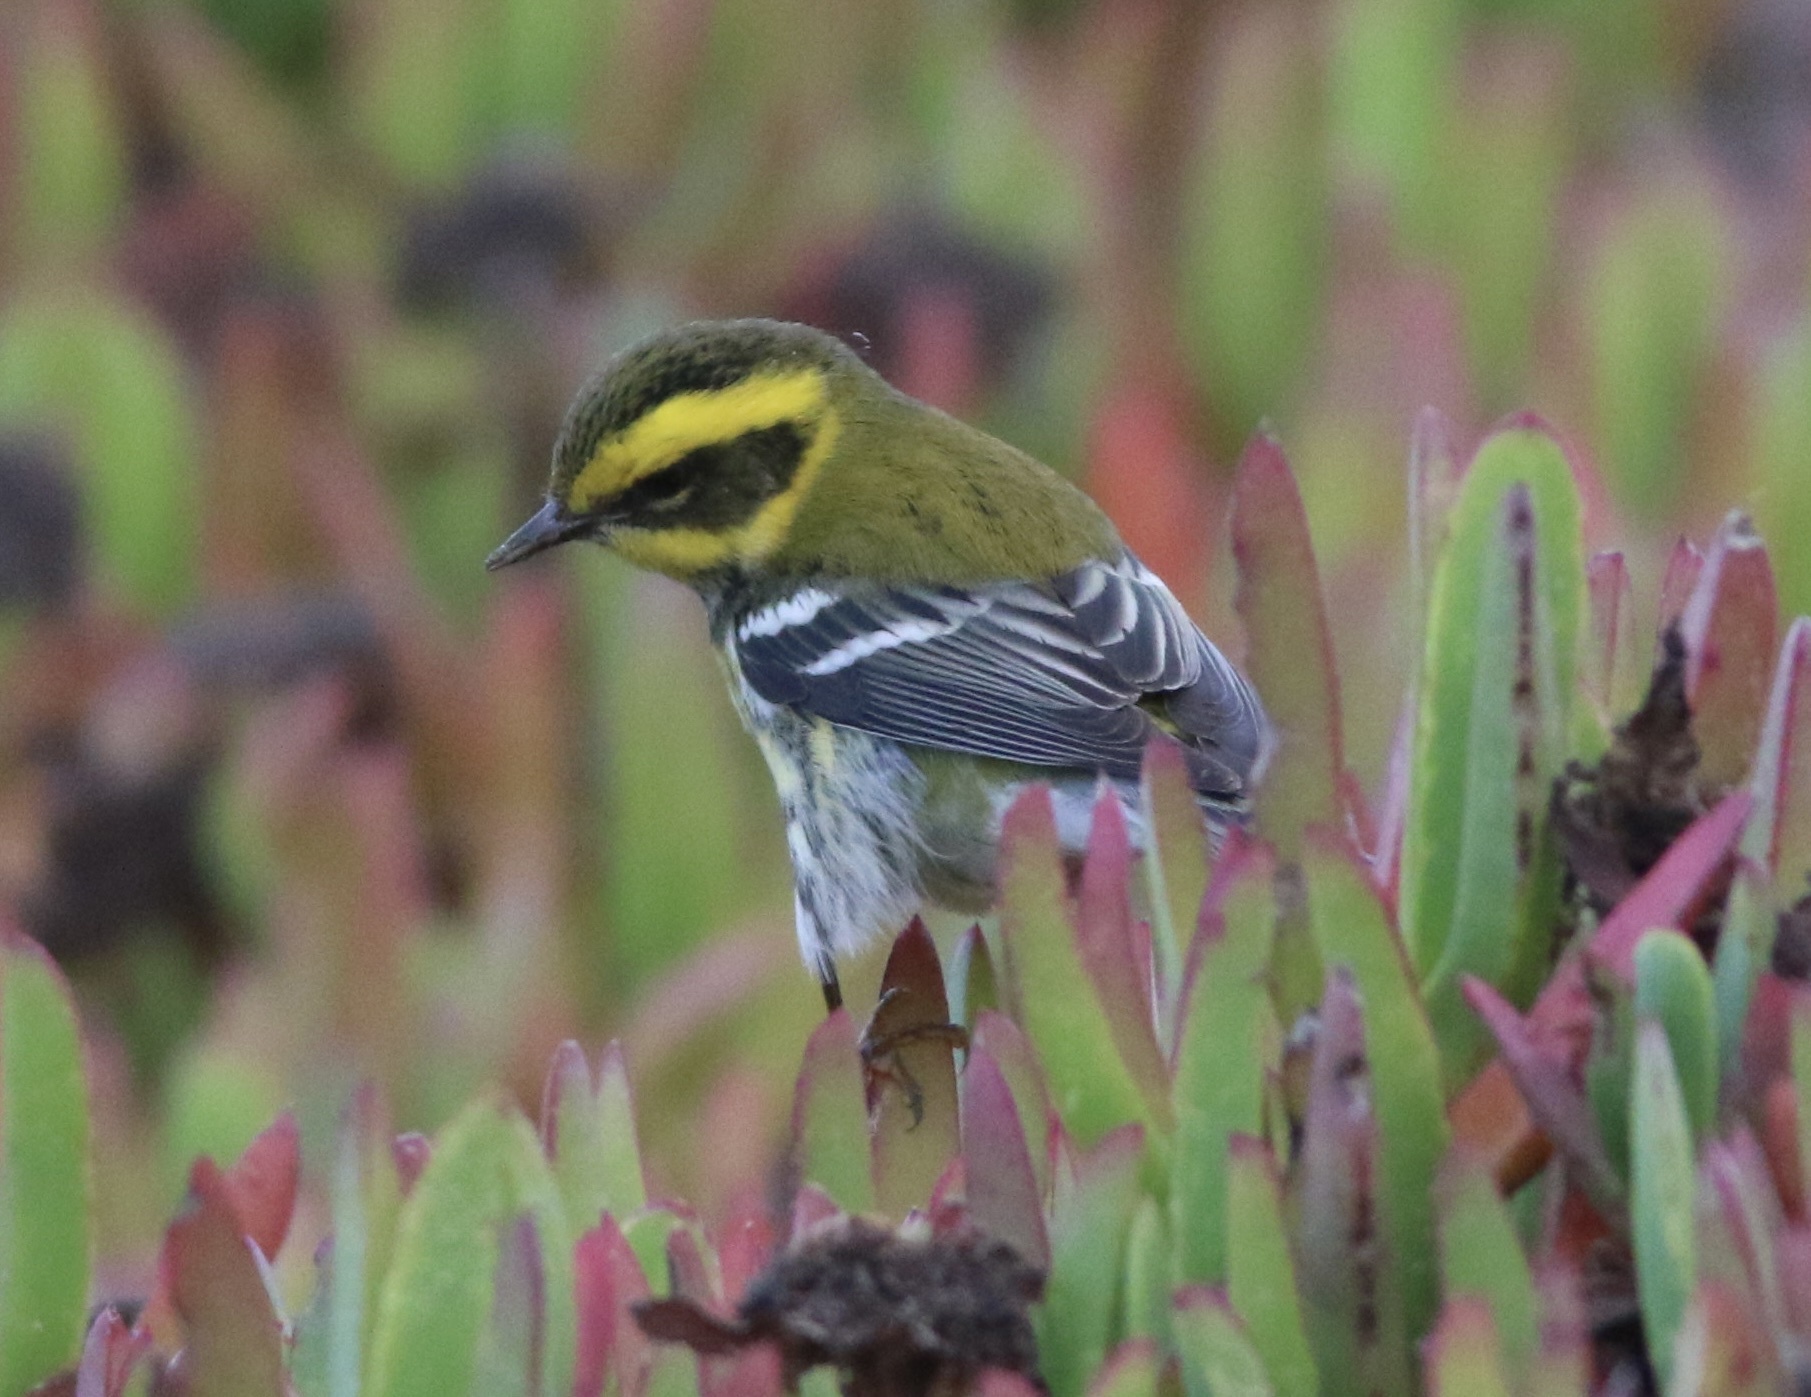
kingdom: Animalia
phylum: Chordata
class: Aves
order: Passeriformes
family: Parulidae
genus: Setophaga
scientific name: Setophaga townsendi
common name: Townsend's warbler
